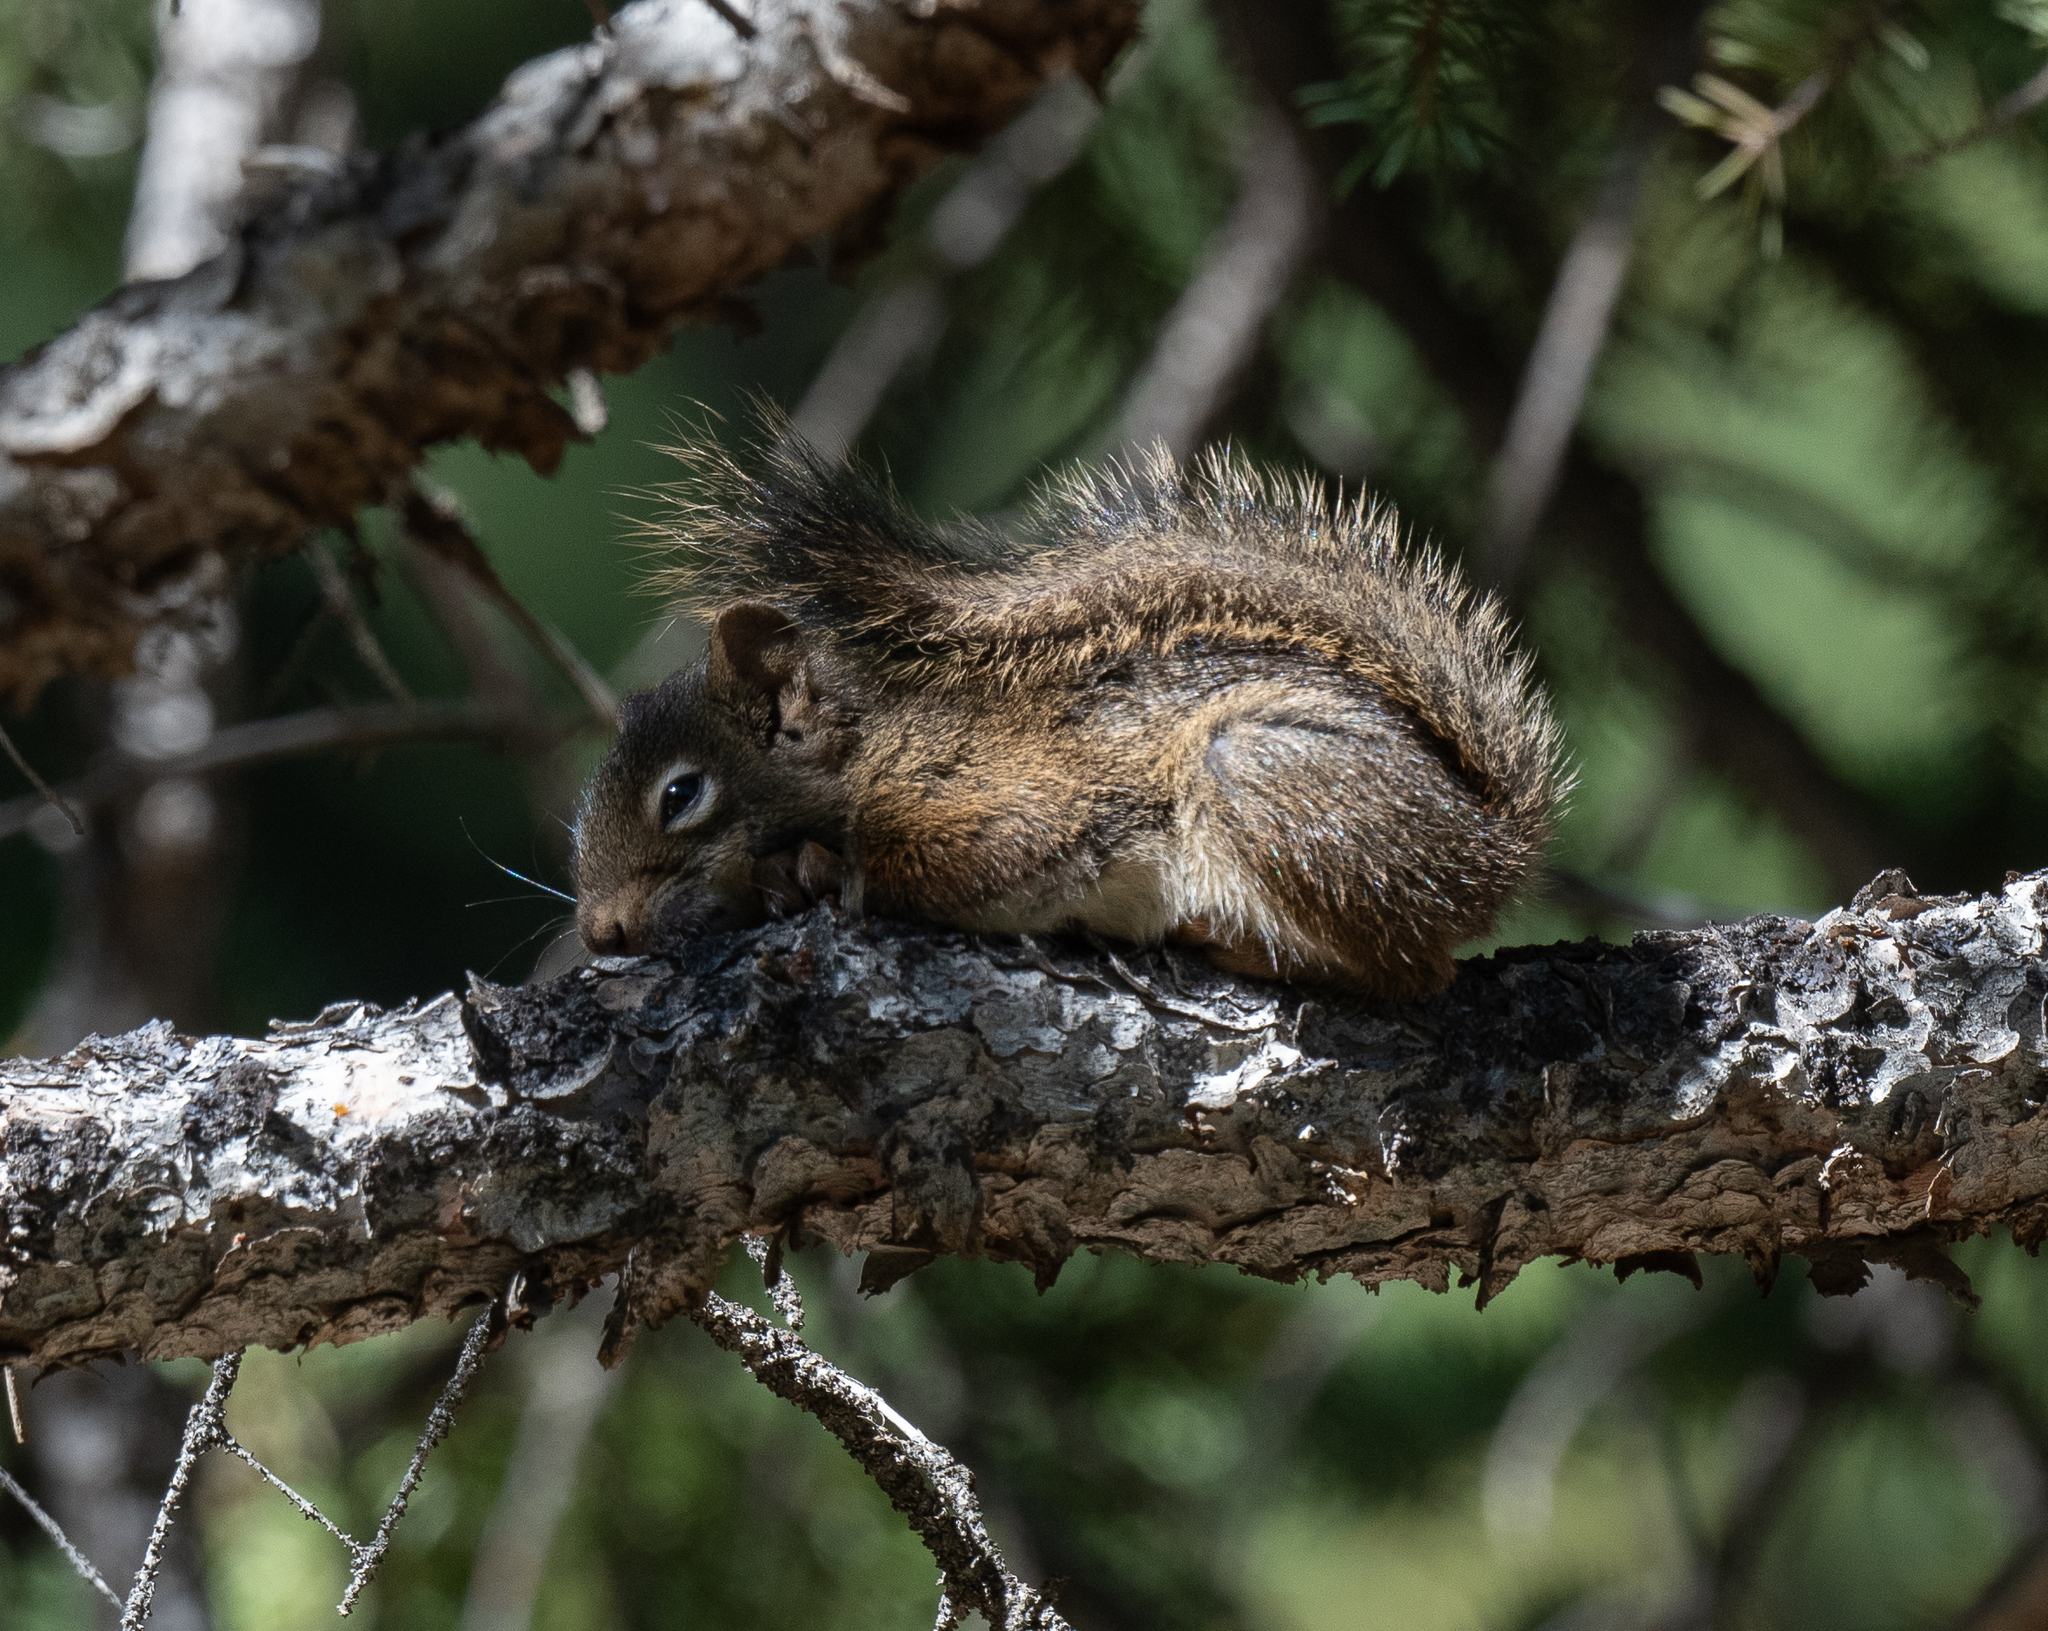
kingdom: Animalia
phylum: Chordata
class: Mammalia
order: Rodentia
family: Sciuridae
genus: Tamiasciurus
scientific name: Tamiasciurus hudsonicus
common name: Red squirrel
